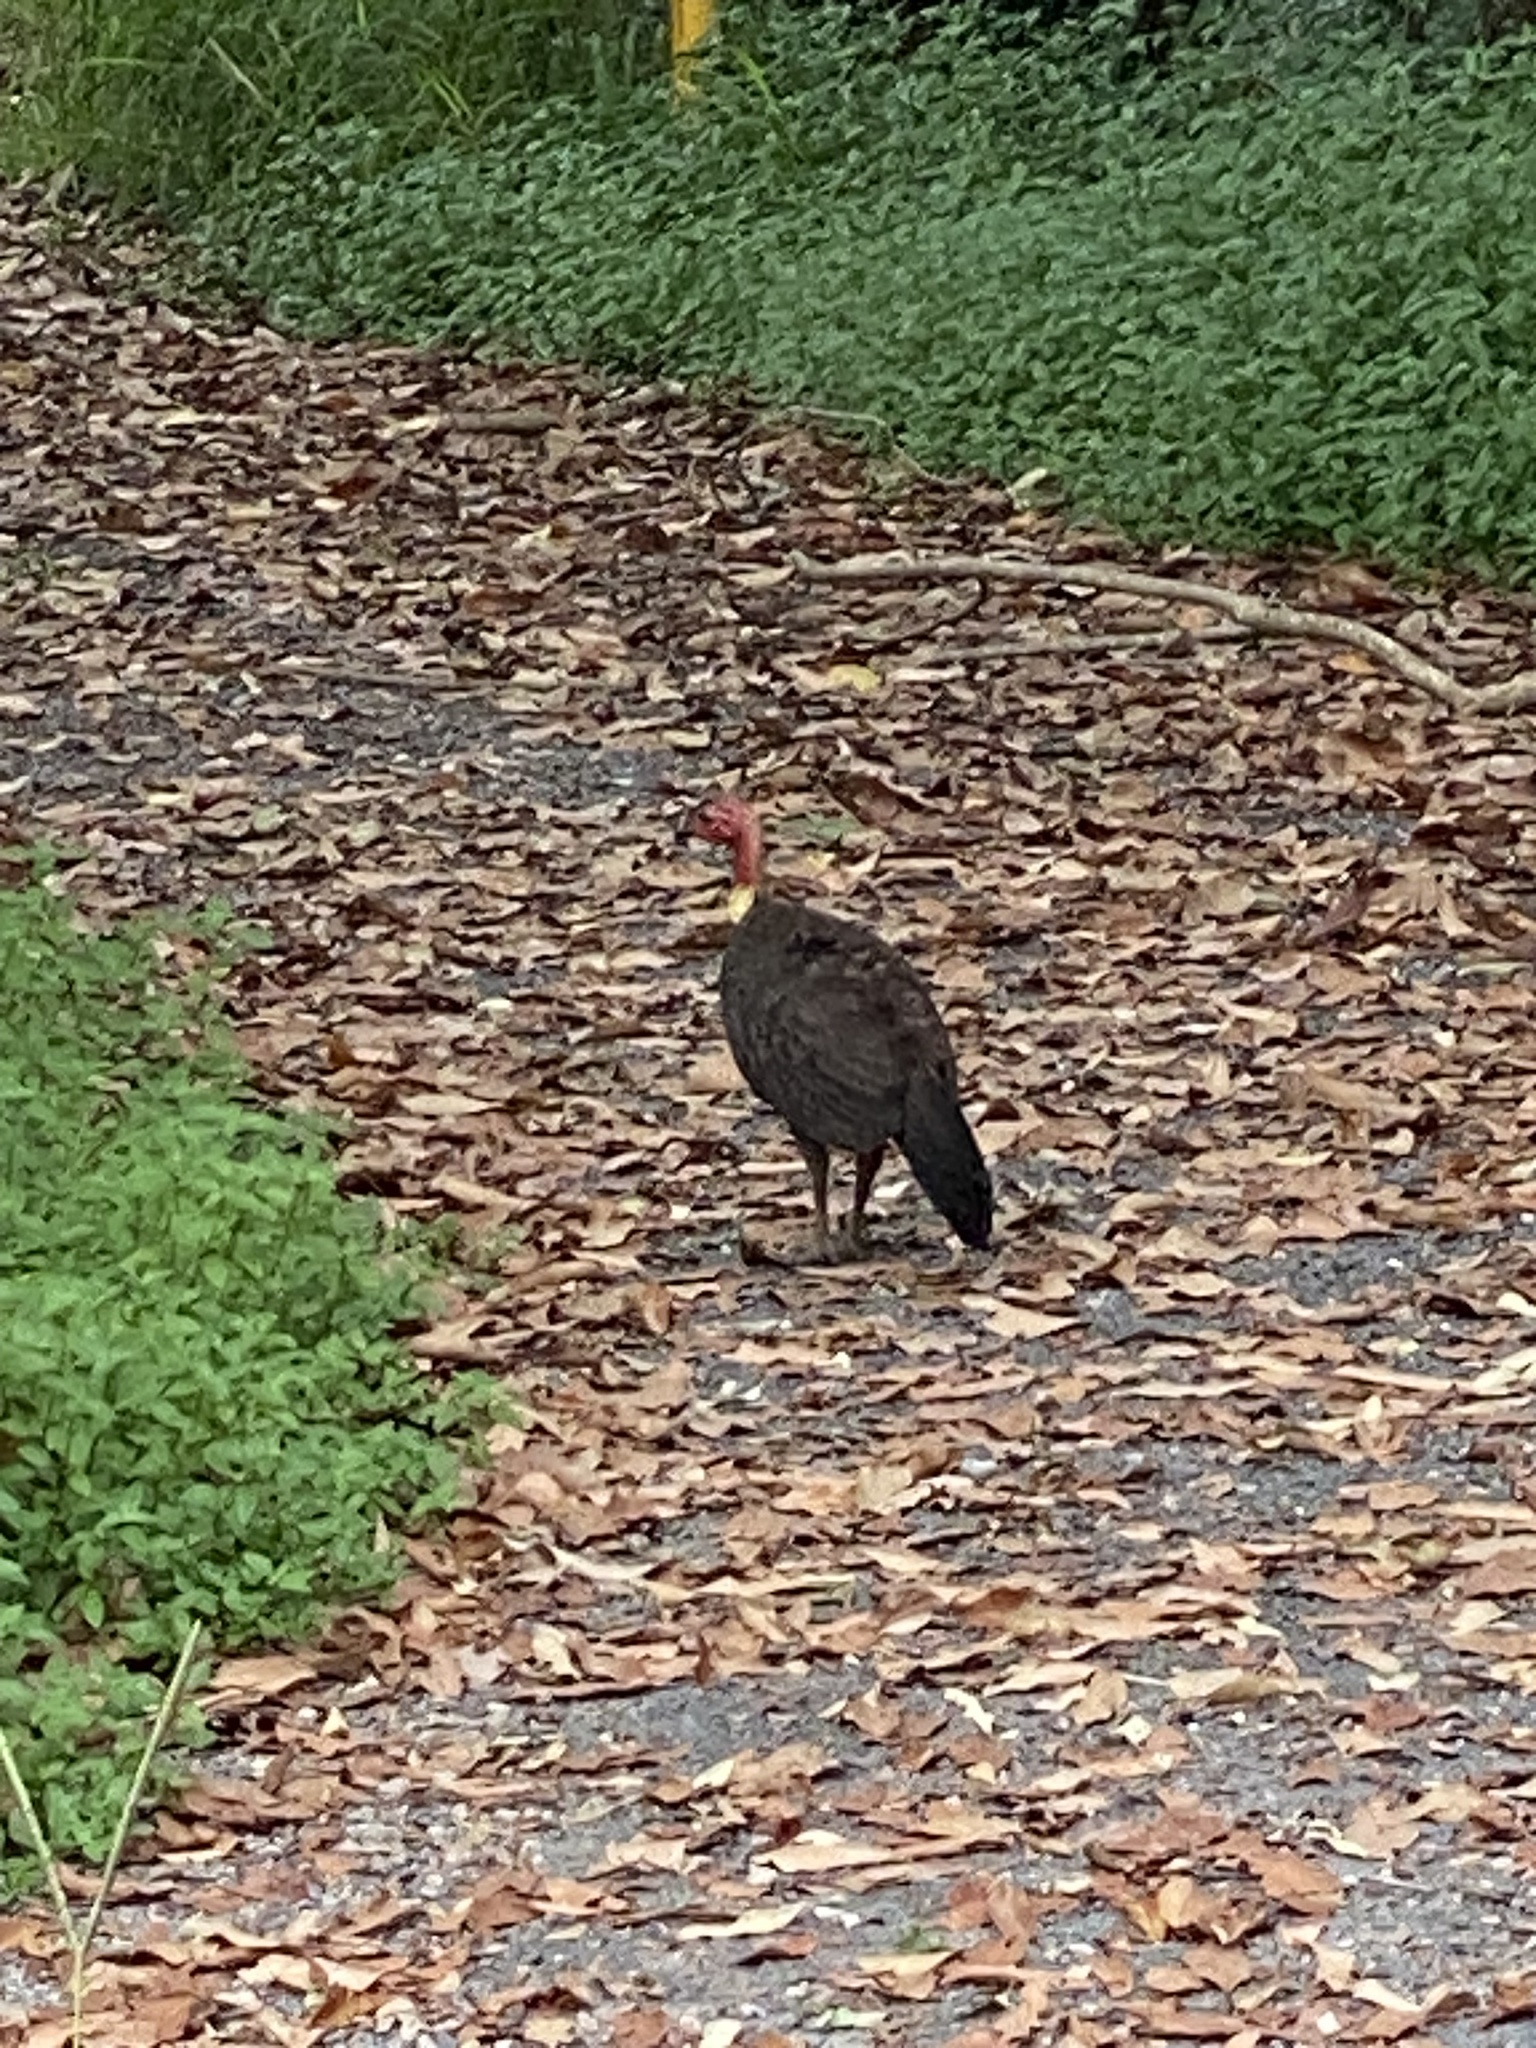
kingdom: Animalia
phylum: Chordata
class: Aves
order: Galliformes
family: Megapodiidae
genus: Alectura
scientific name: Alectura lathami
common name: Australian brushturkey
